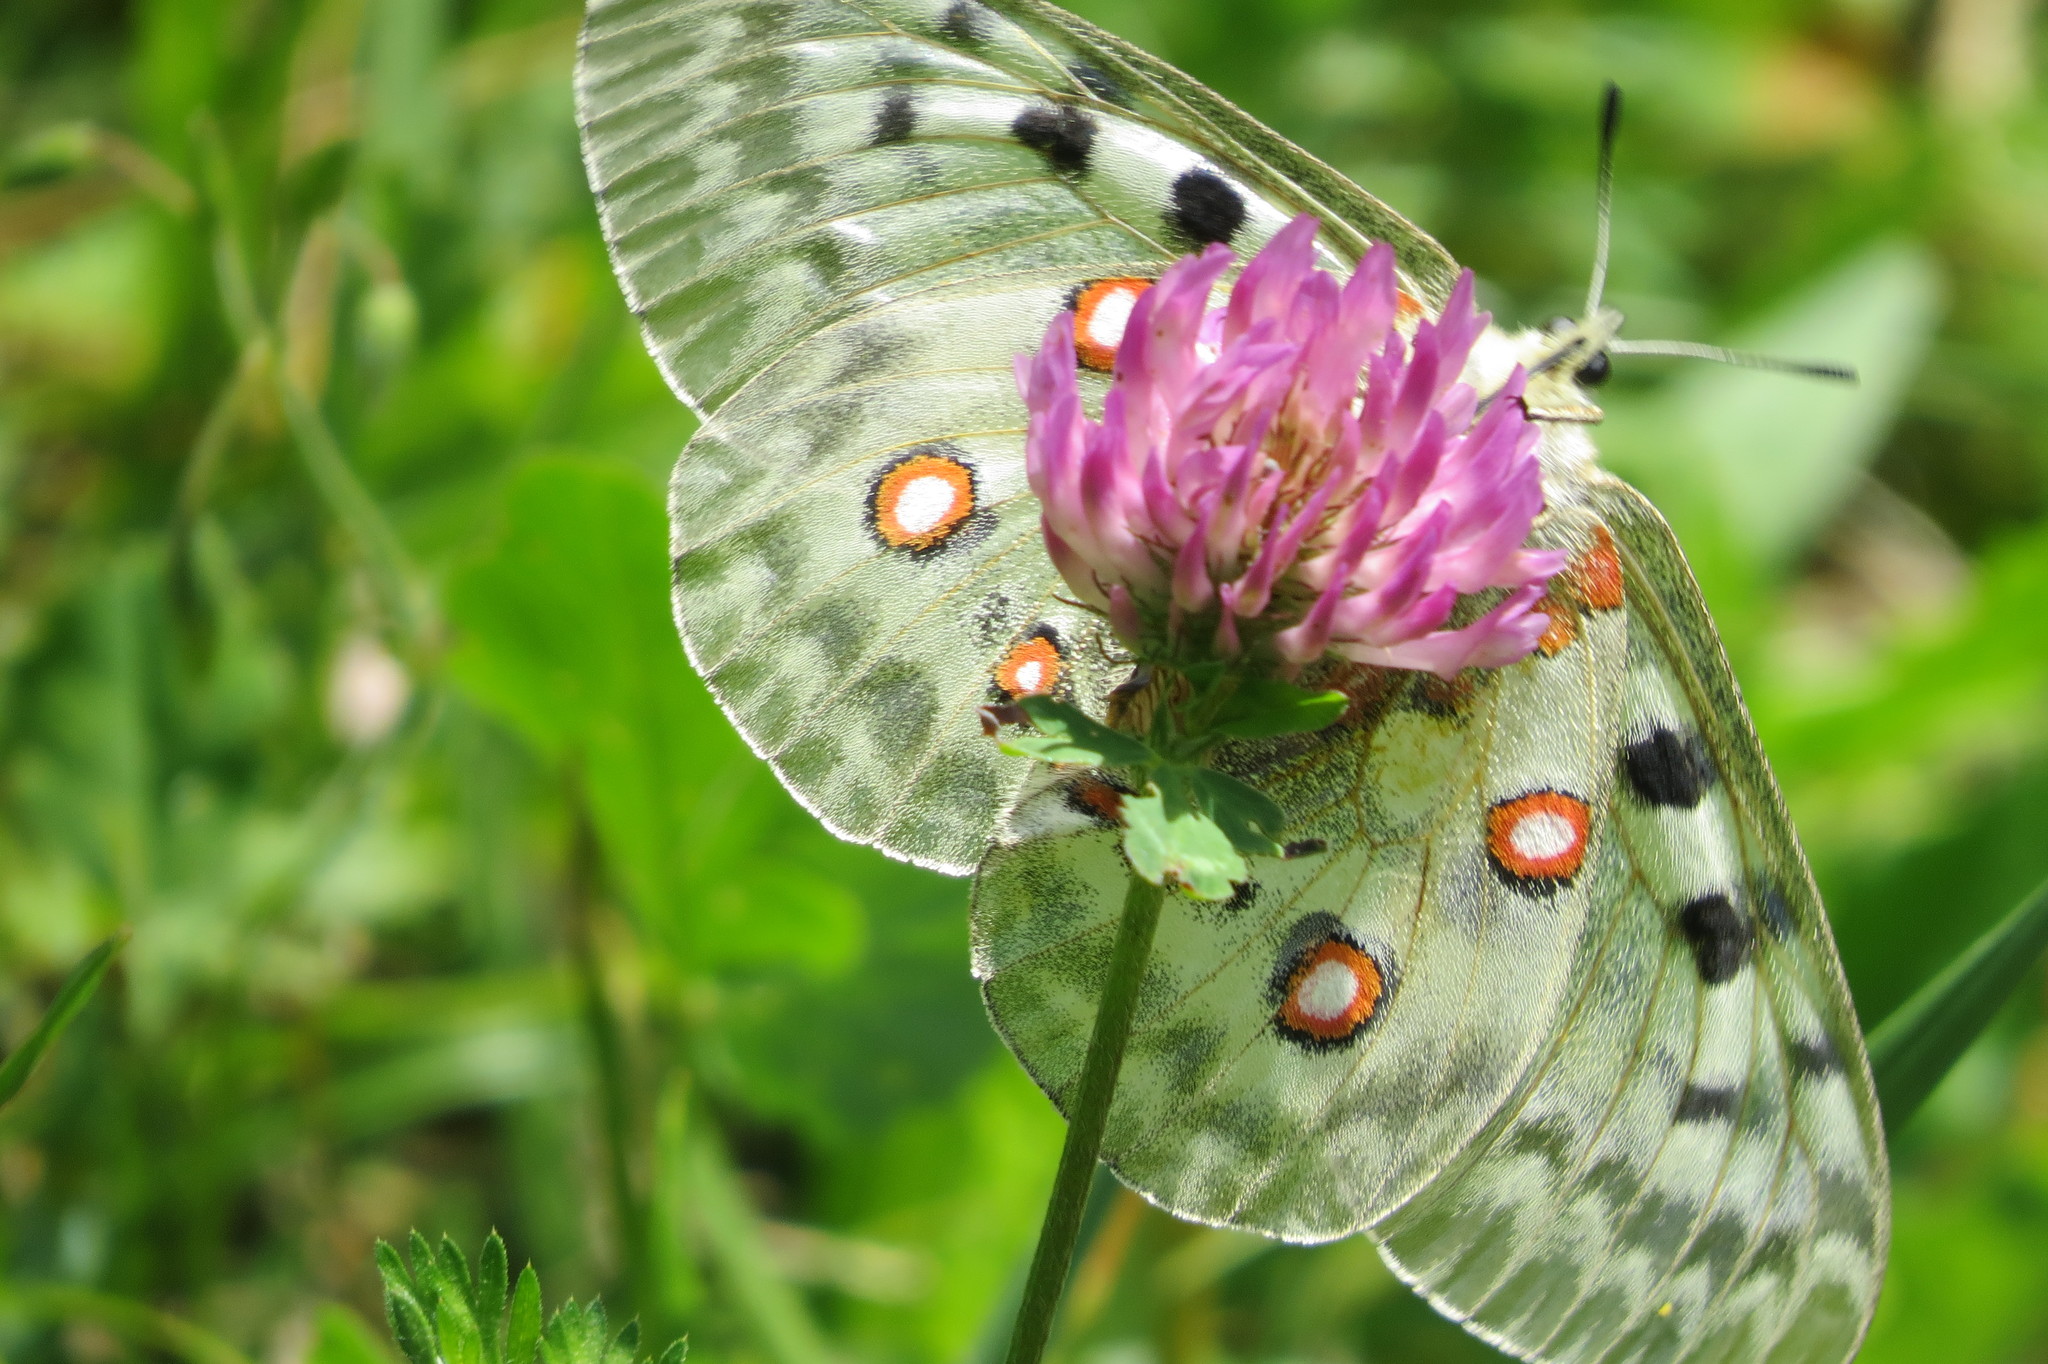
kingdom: Animalia
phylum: Arthropoda
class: Insecta
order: Lepidoptera
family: Papilionidae
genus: Parnassius
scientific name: Parnassius apollo
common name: Apollo
